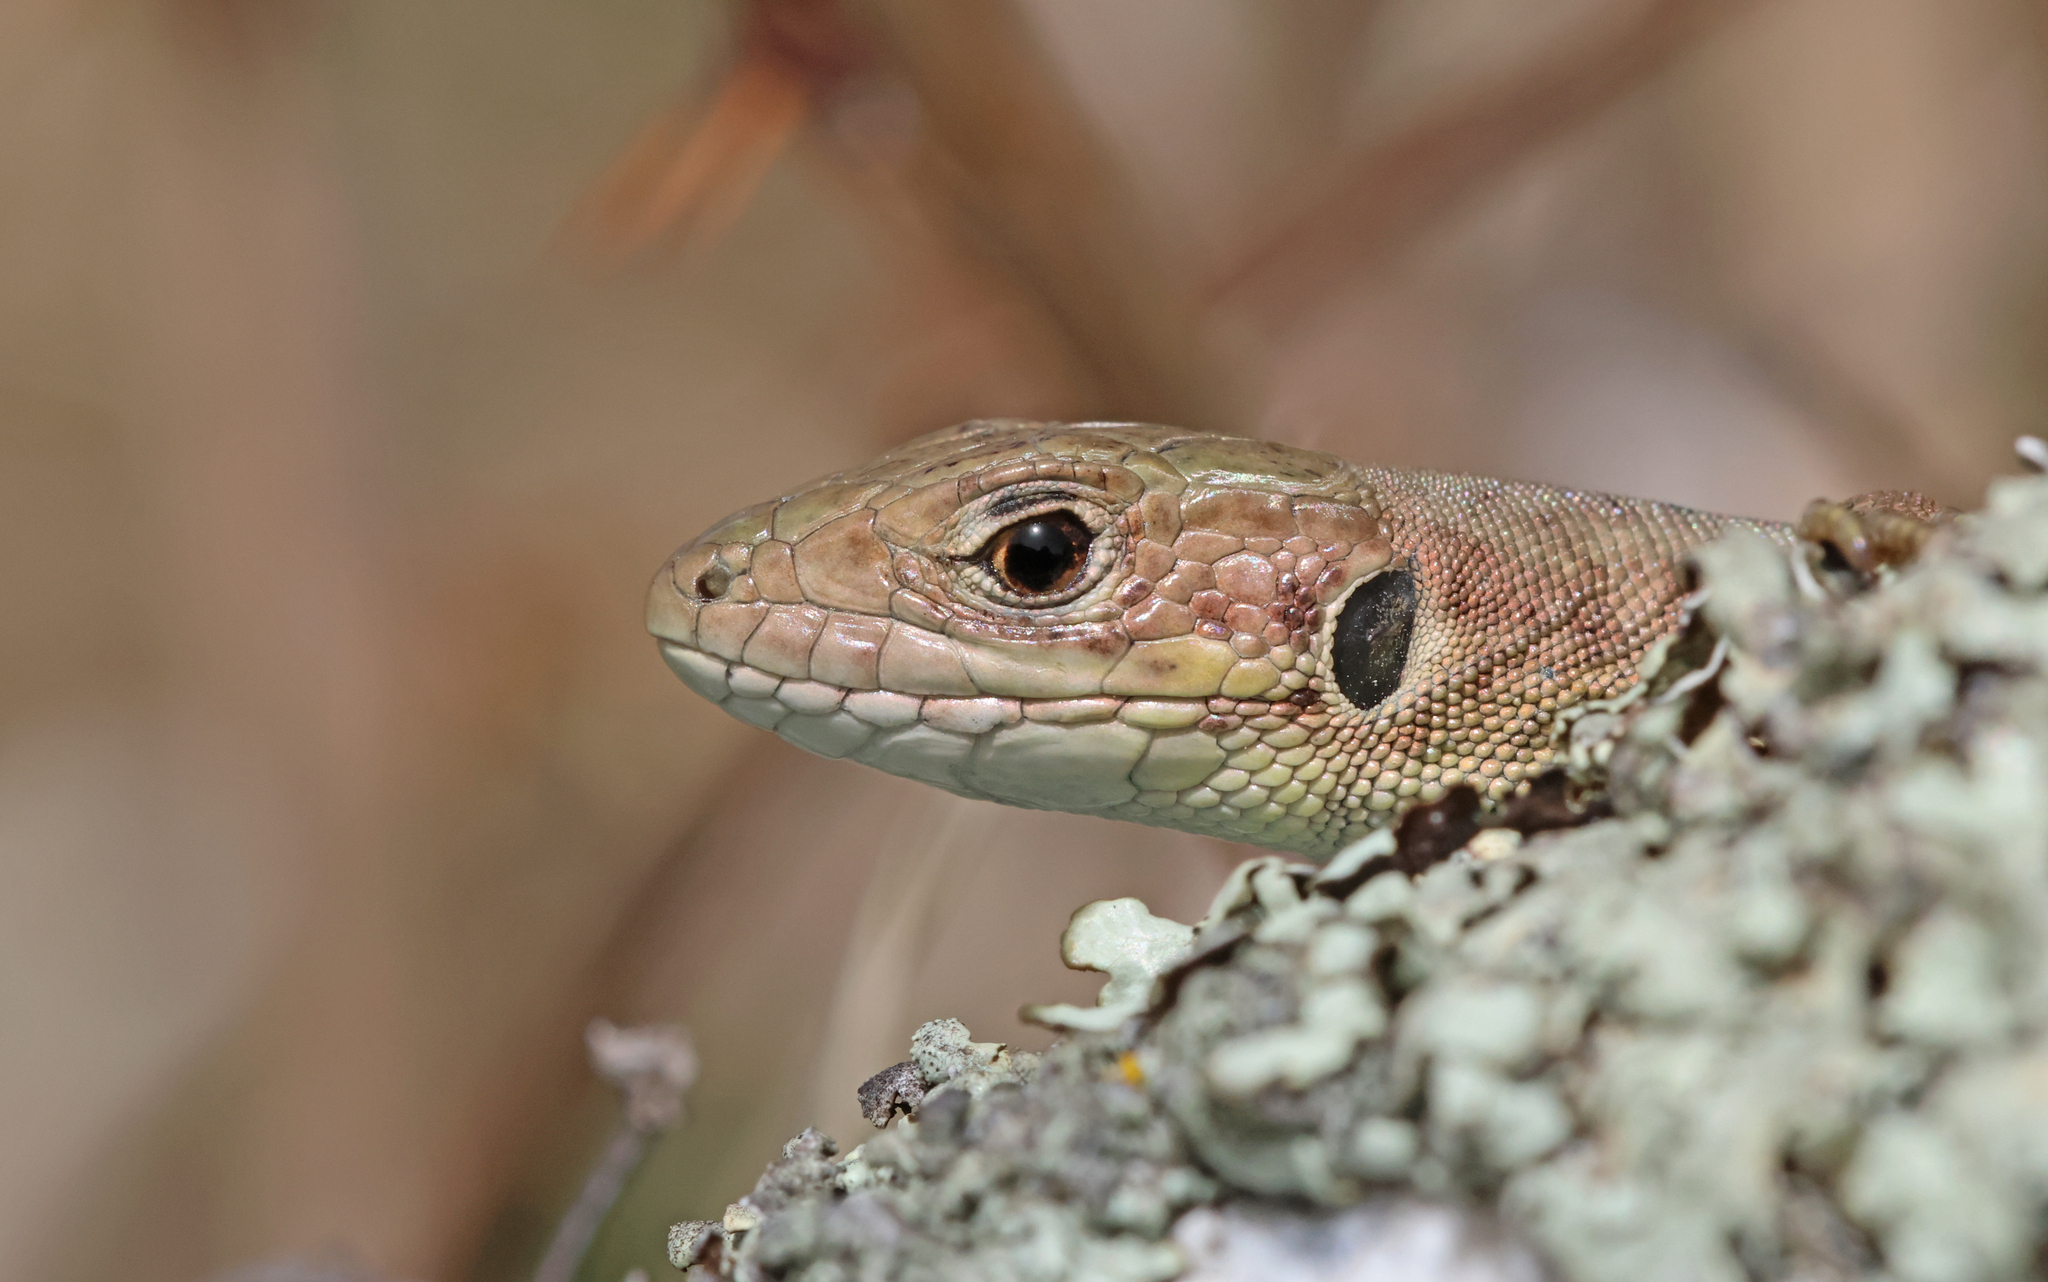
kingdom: Animalia
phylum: Chordata
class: Squamata
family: Lacertidae
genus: Lacerta
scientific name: Lacerta viridis
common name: European green lizard
